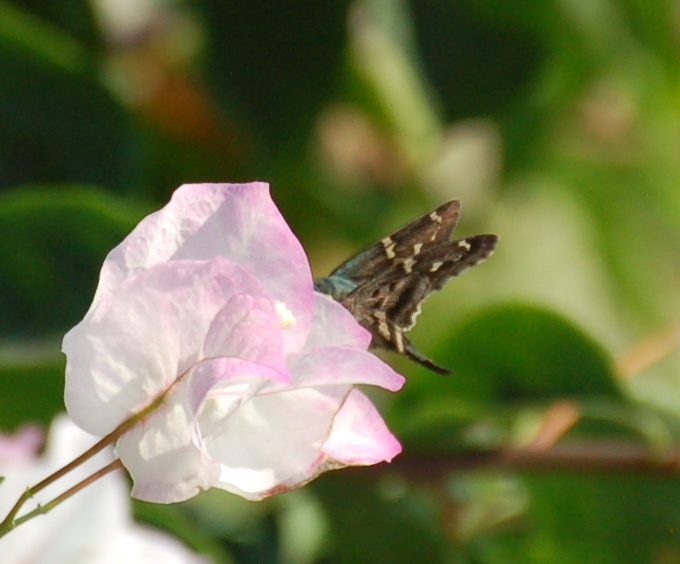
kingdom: Animalia
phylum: Arthropoda
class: Insecta
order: Lepidoptera
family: Hesperiidae
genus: Urbanus
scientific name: Urbanus proteus
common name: Long-tailed skipper
